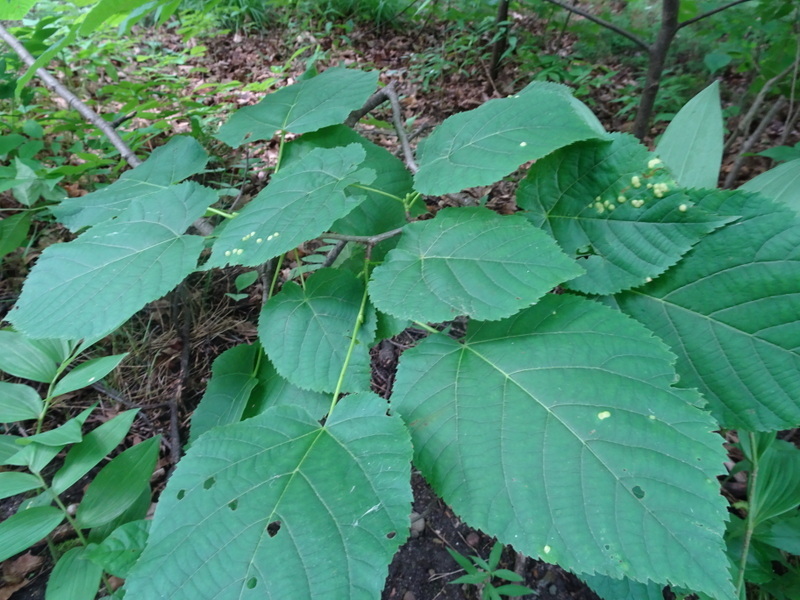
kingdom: Animalia
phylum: Arthropoda
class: Insecta
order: Diptera
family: Cecidomyiidae
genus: Contarinia
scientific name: Contarinia verrucicola
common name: Linden wart gall midge
